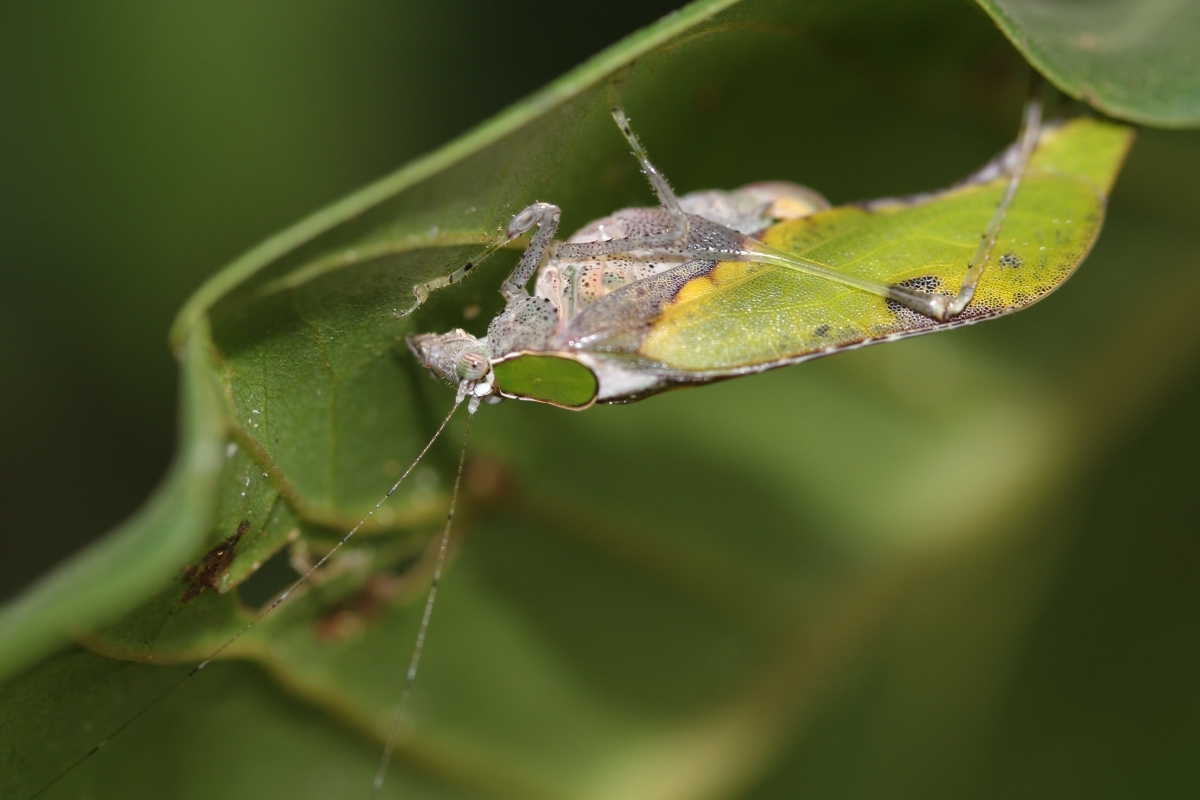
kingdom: Animalia
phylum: Arthropoda
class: Insecta
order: Orthoptera
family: Tettigoniidae
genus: Hetaira
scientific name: Hetaira
